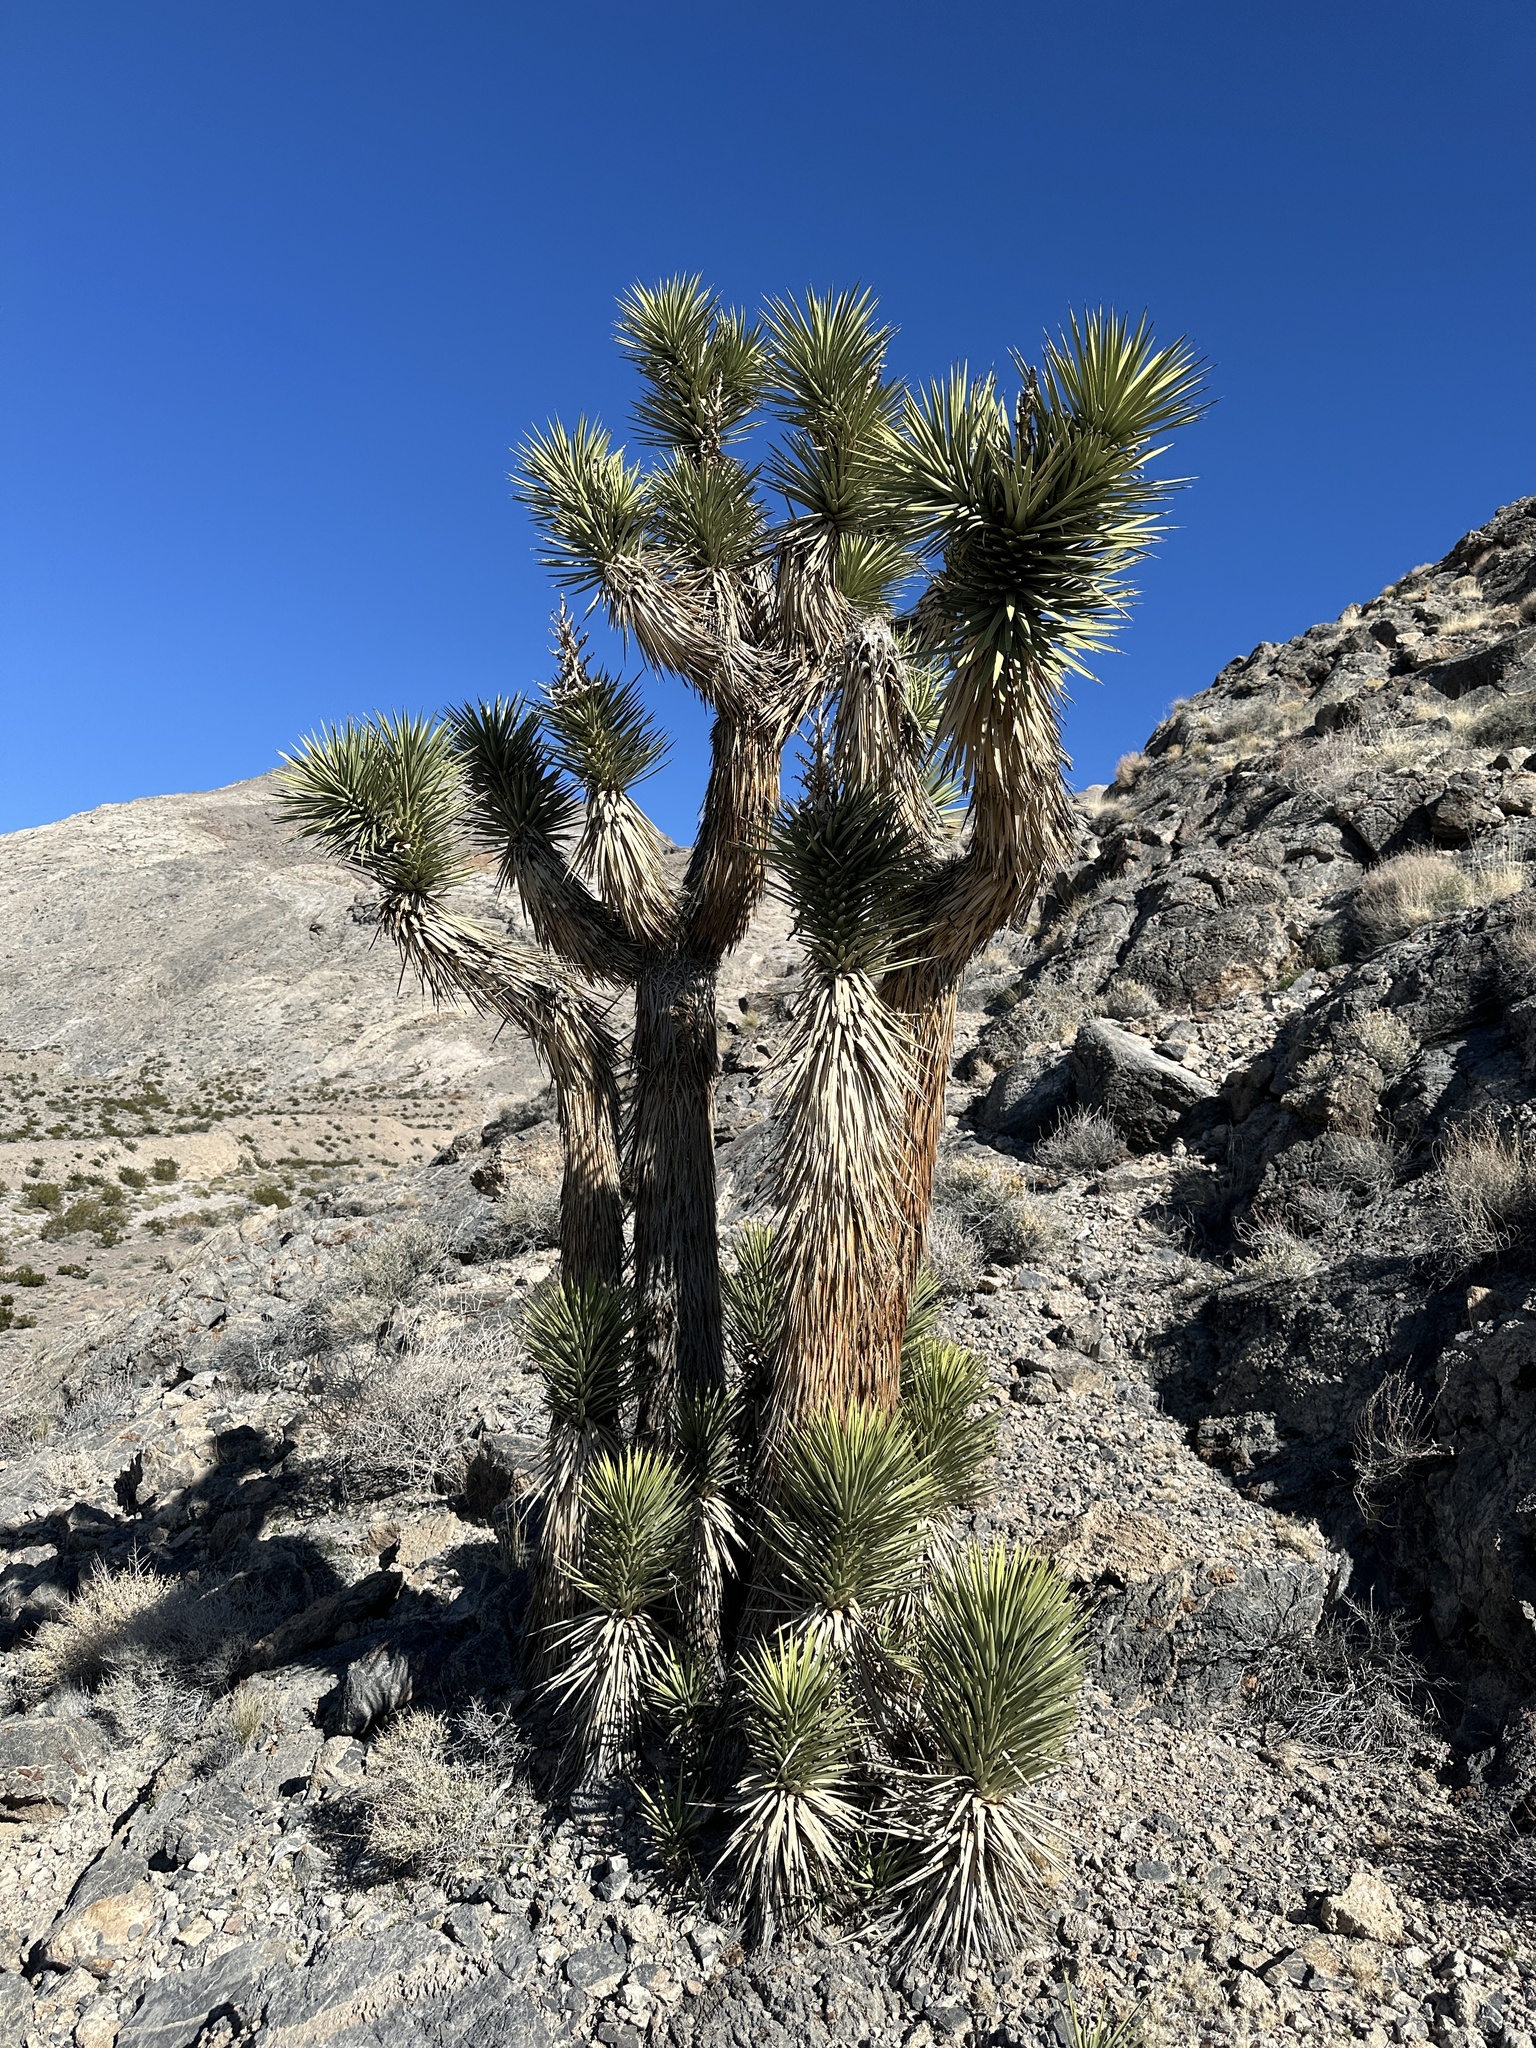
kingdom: Plantae
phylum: Tracheophyta
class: Liliopsida
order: Asparagales
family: Asparagaceae
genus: Yucca
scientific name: Yucca brevifolia
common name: Joshua tree
